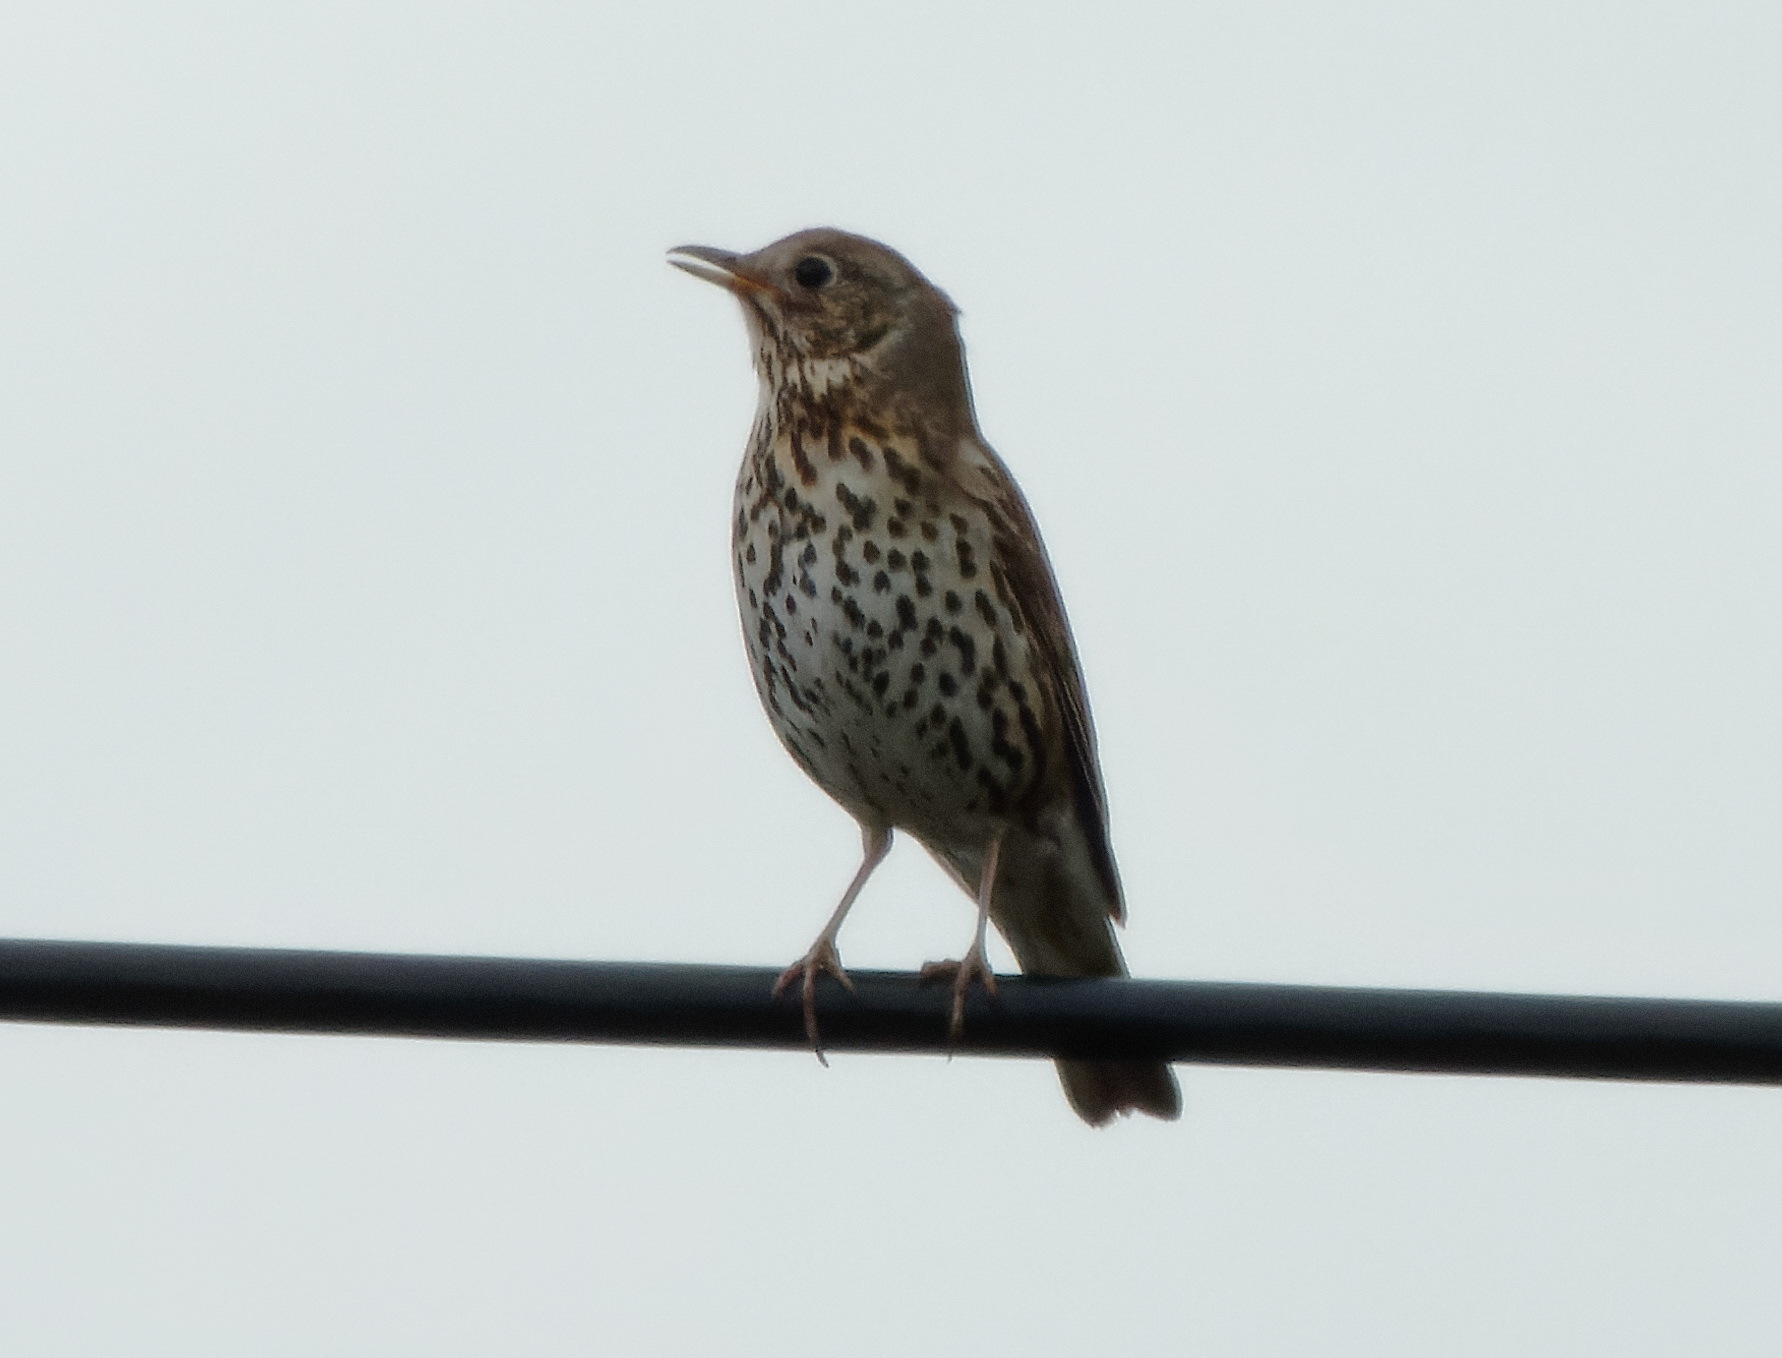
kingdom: Animalia
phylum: Chordata
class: Aves
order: Passeriformes
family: Turdidae
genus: Turdus
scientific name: Turdus philomelos
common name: Song thrush
